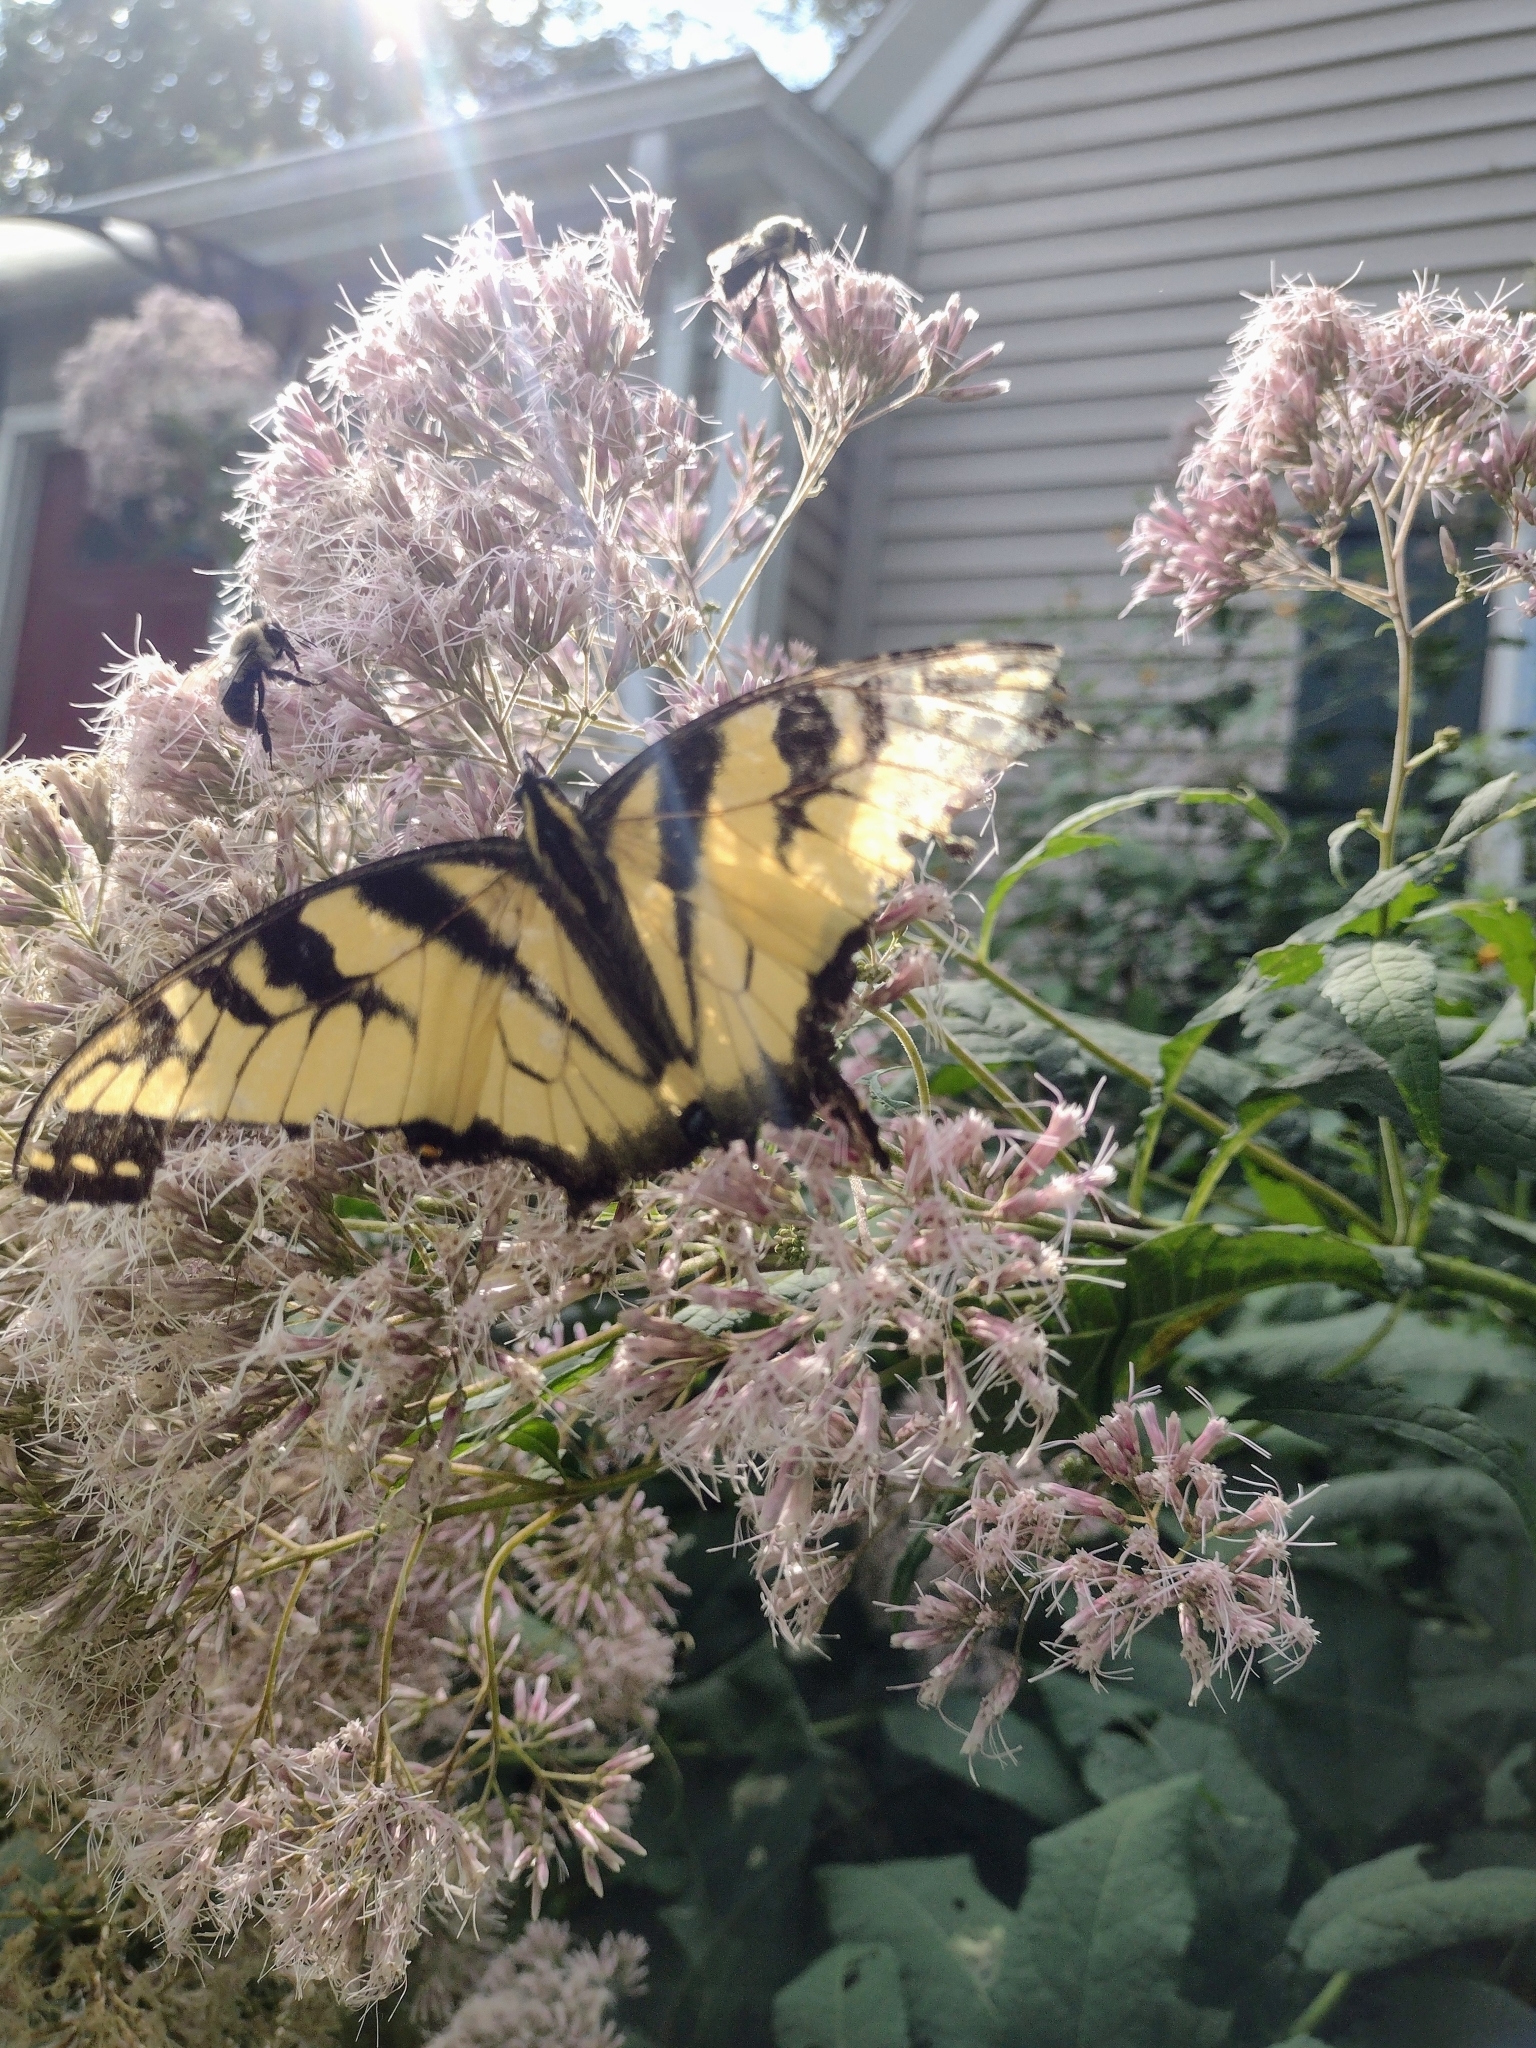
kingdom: Animalia
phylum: Arthropoda
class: Insecta
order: Lepidoptera
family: Papilionidae
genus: Papilio
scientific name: Papilio glaucus
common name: Tiger swallowtail
